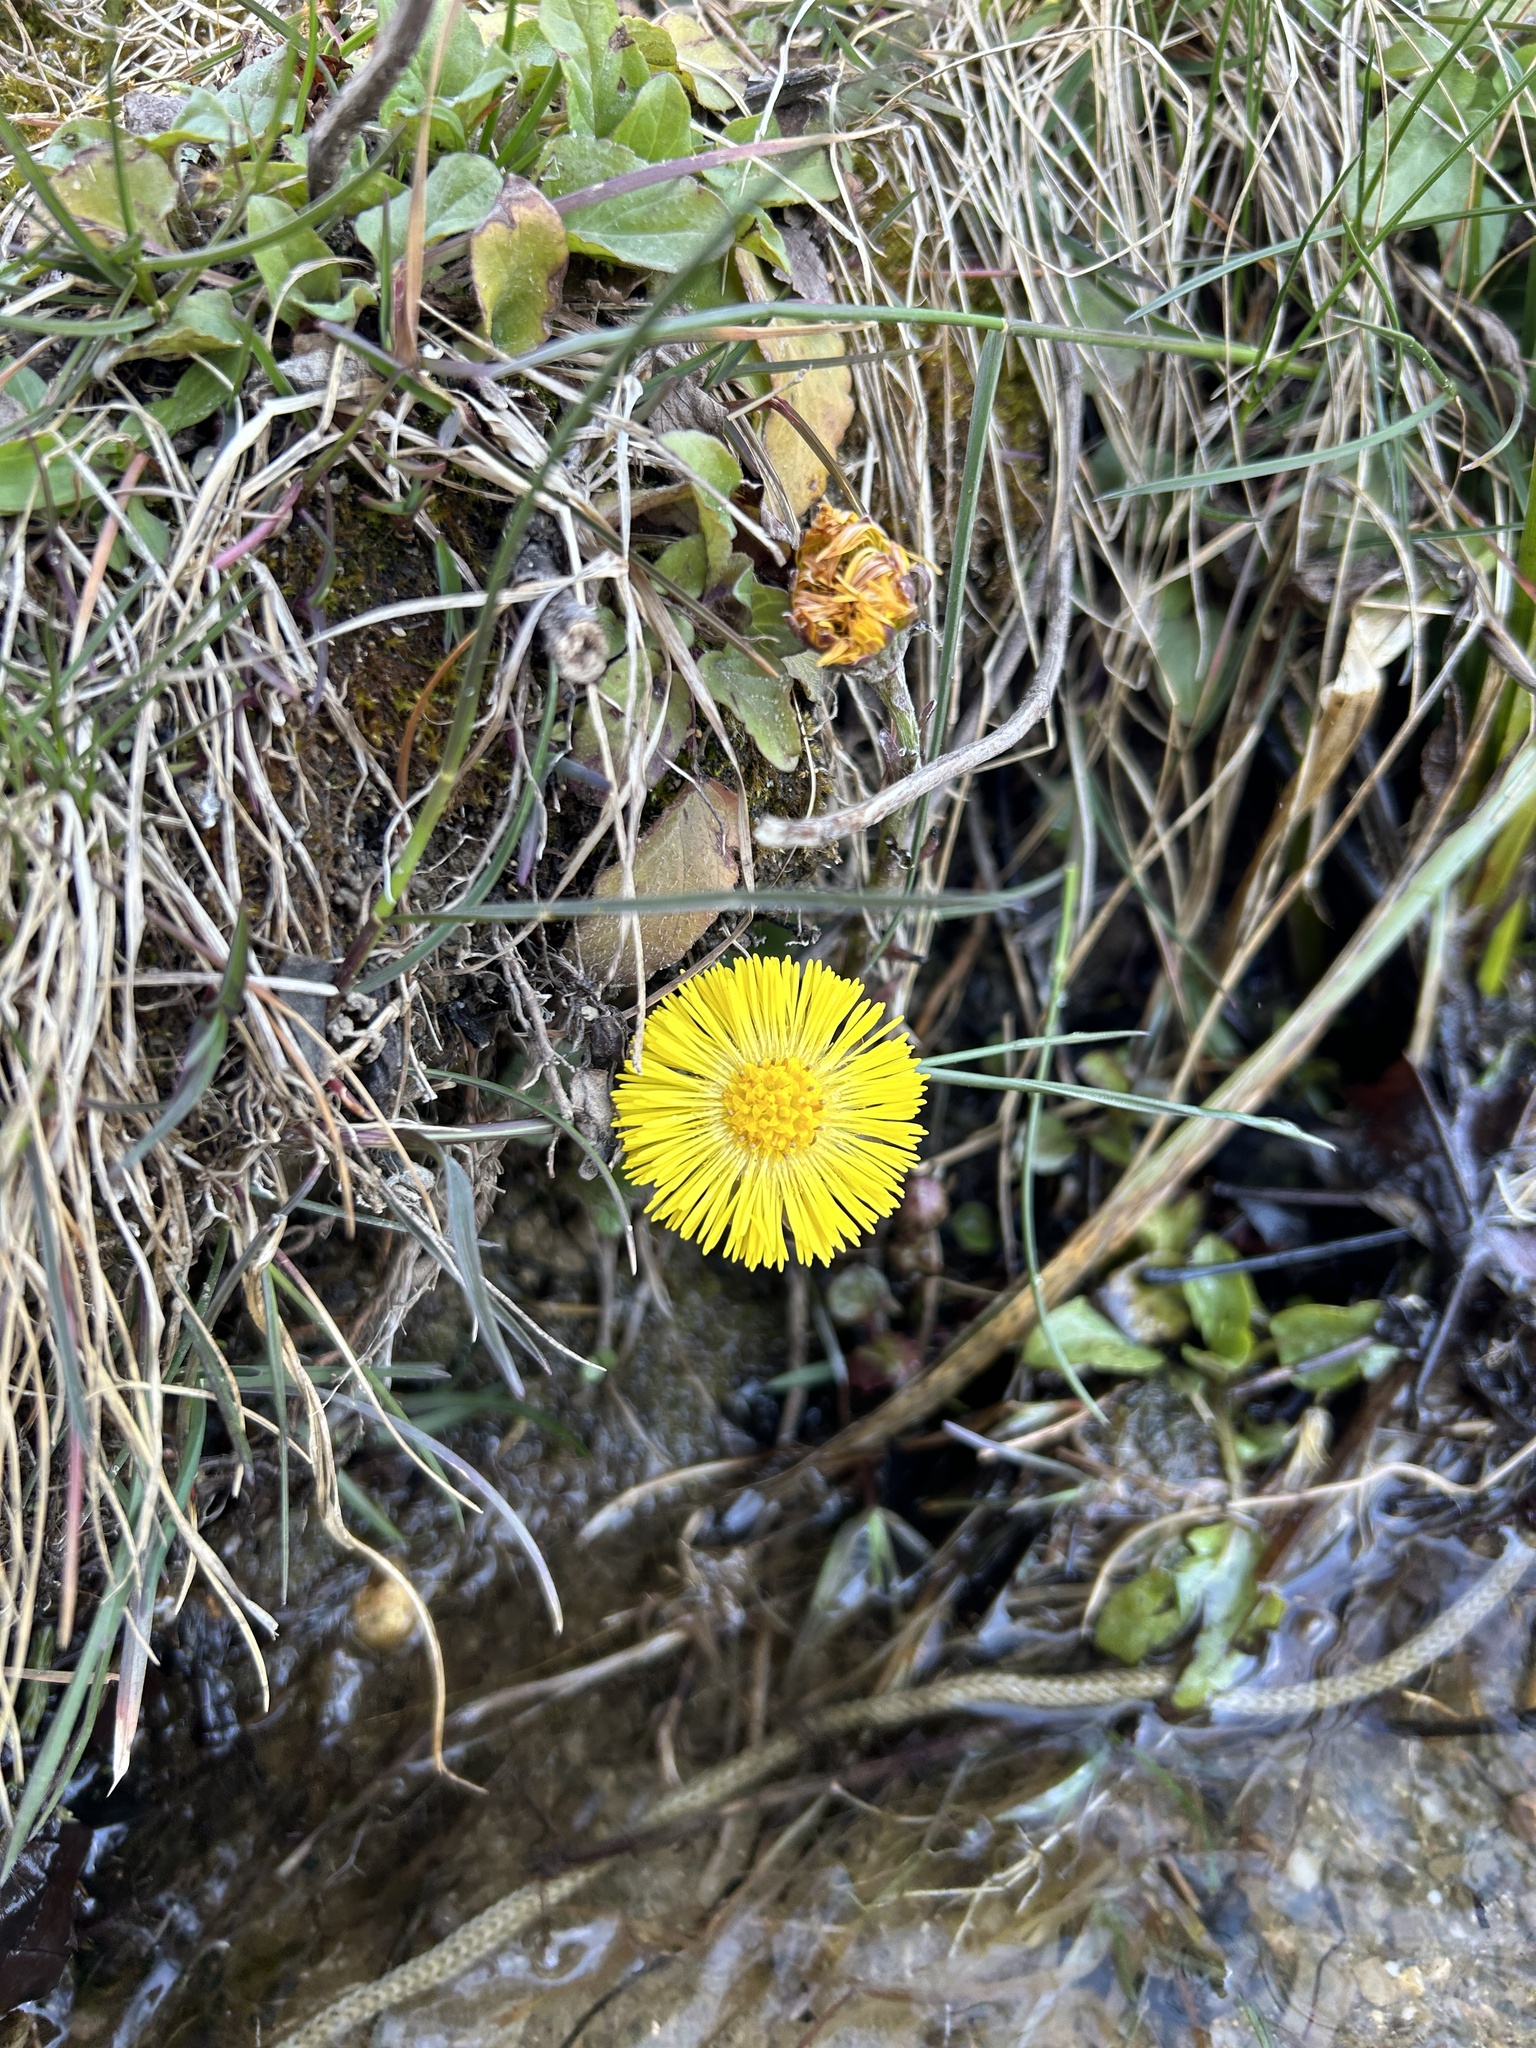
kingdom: Plantae
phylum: Tracheophyta
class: Magnoliopsida
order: Asterales
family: Asteraceae
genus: Tussilago
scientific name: Tussilago farfara
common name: Coltsfoot
